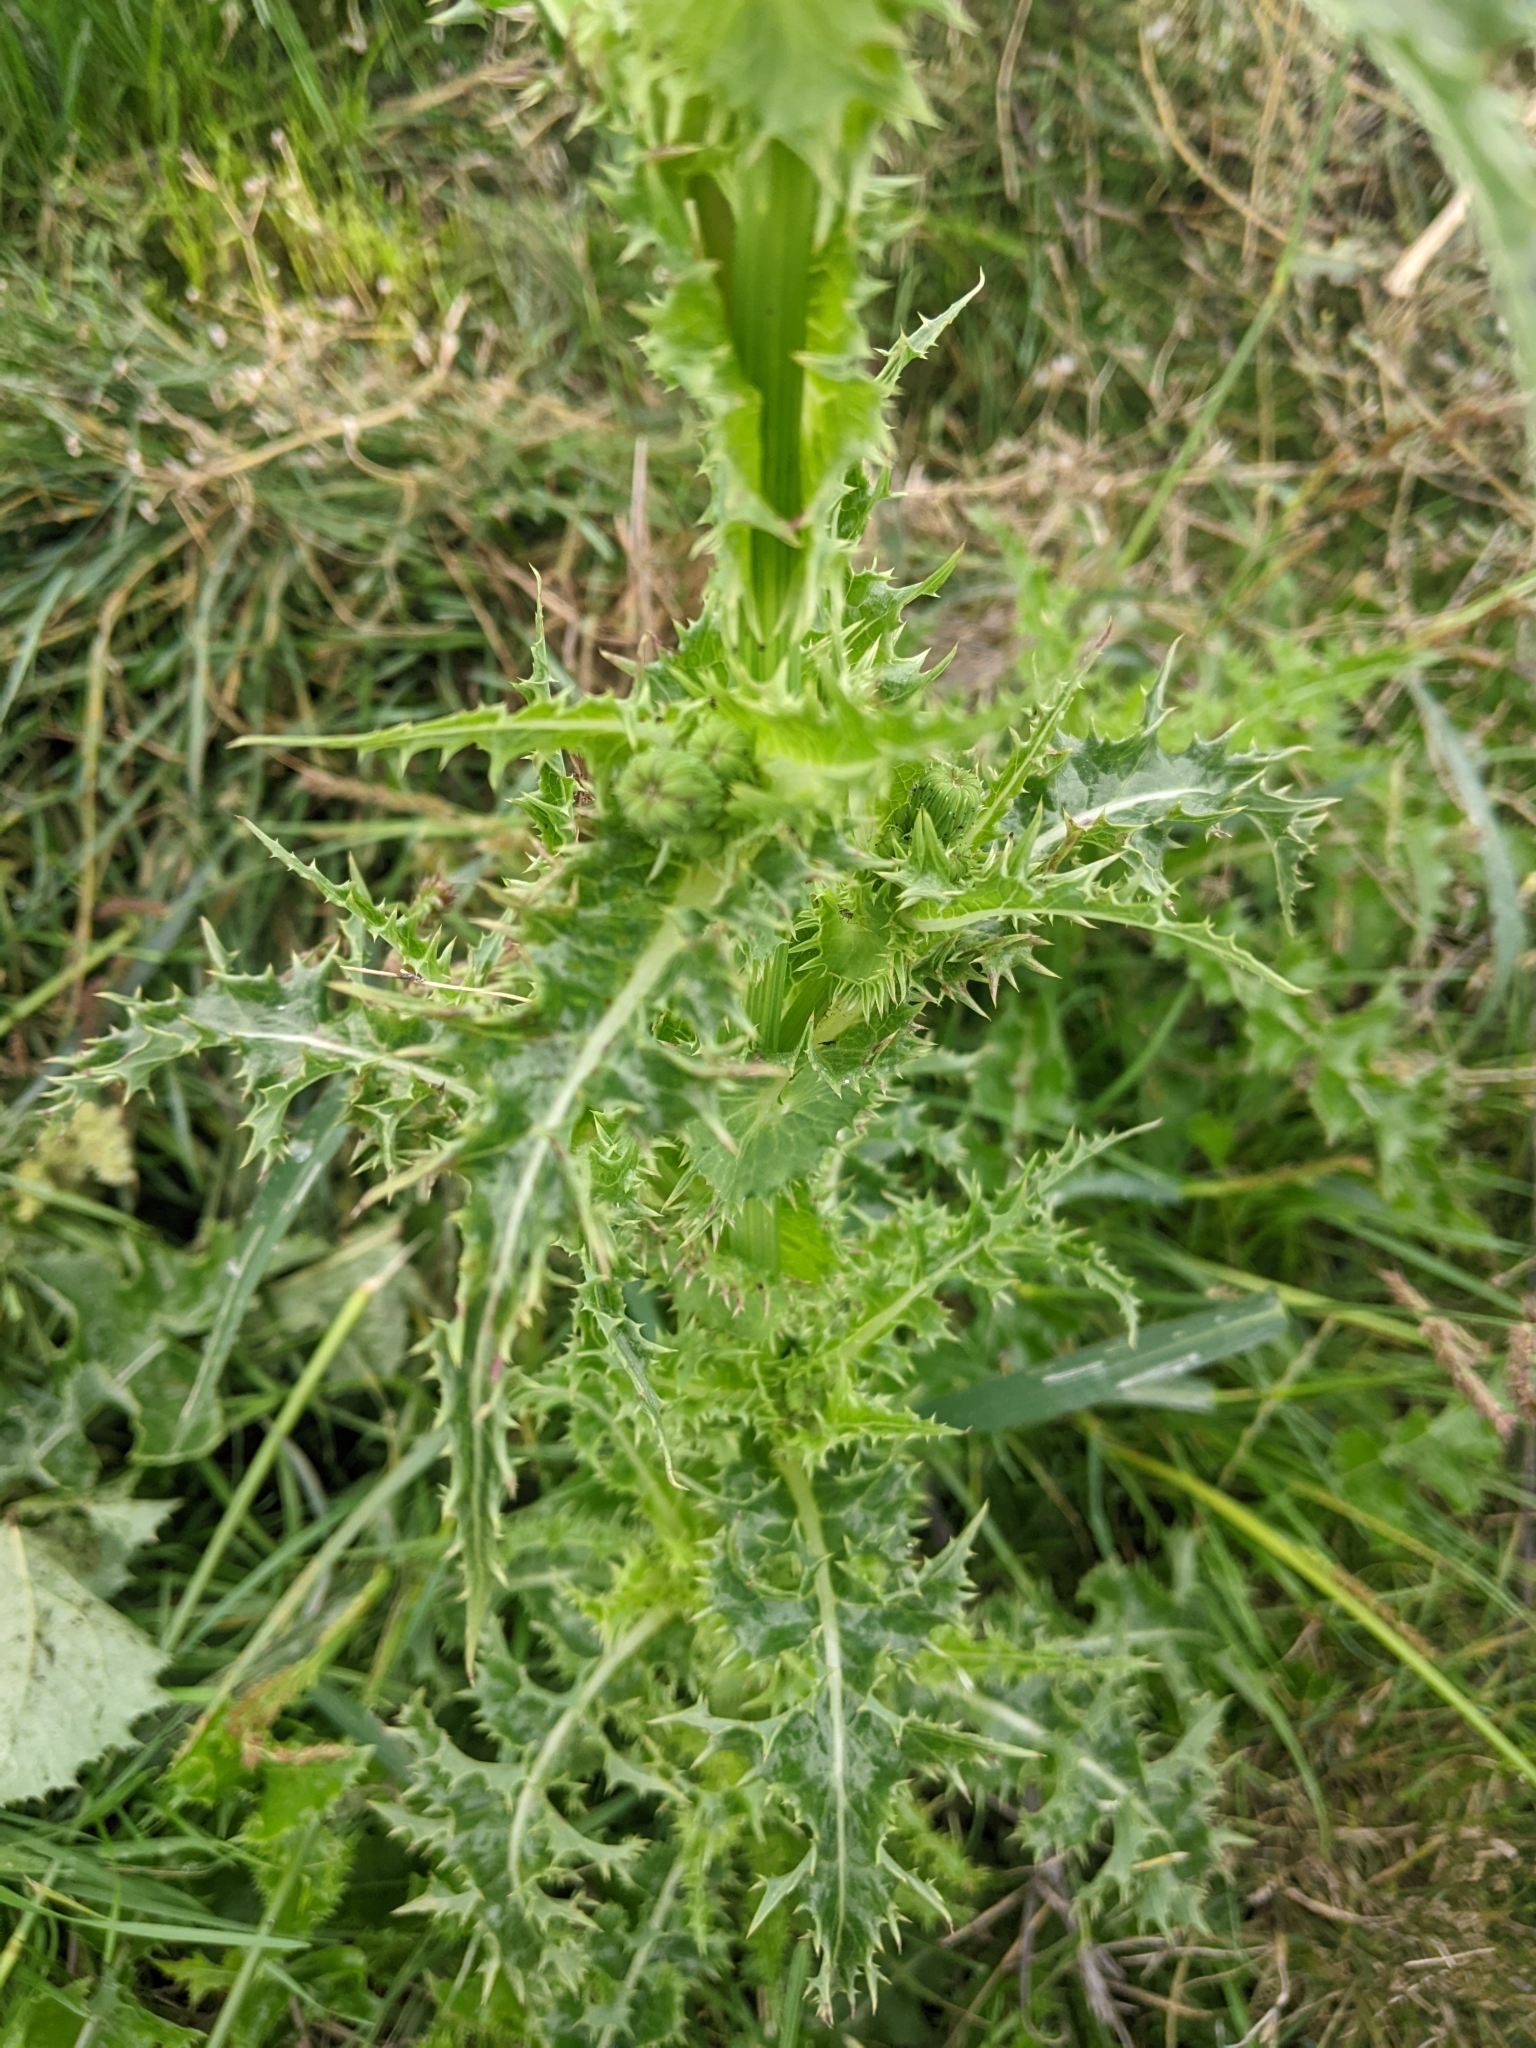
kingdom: Plantae
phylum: Tracheophyta
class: Magnoliopsida
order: Asterales
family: Asteraceae
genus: Sonchus
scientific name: Sonchus asper
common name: Prickly sow-thistle
